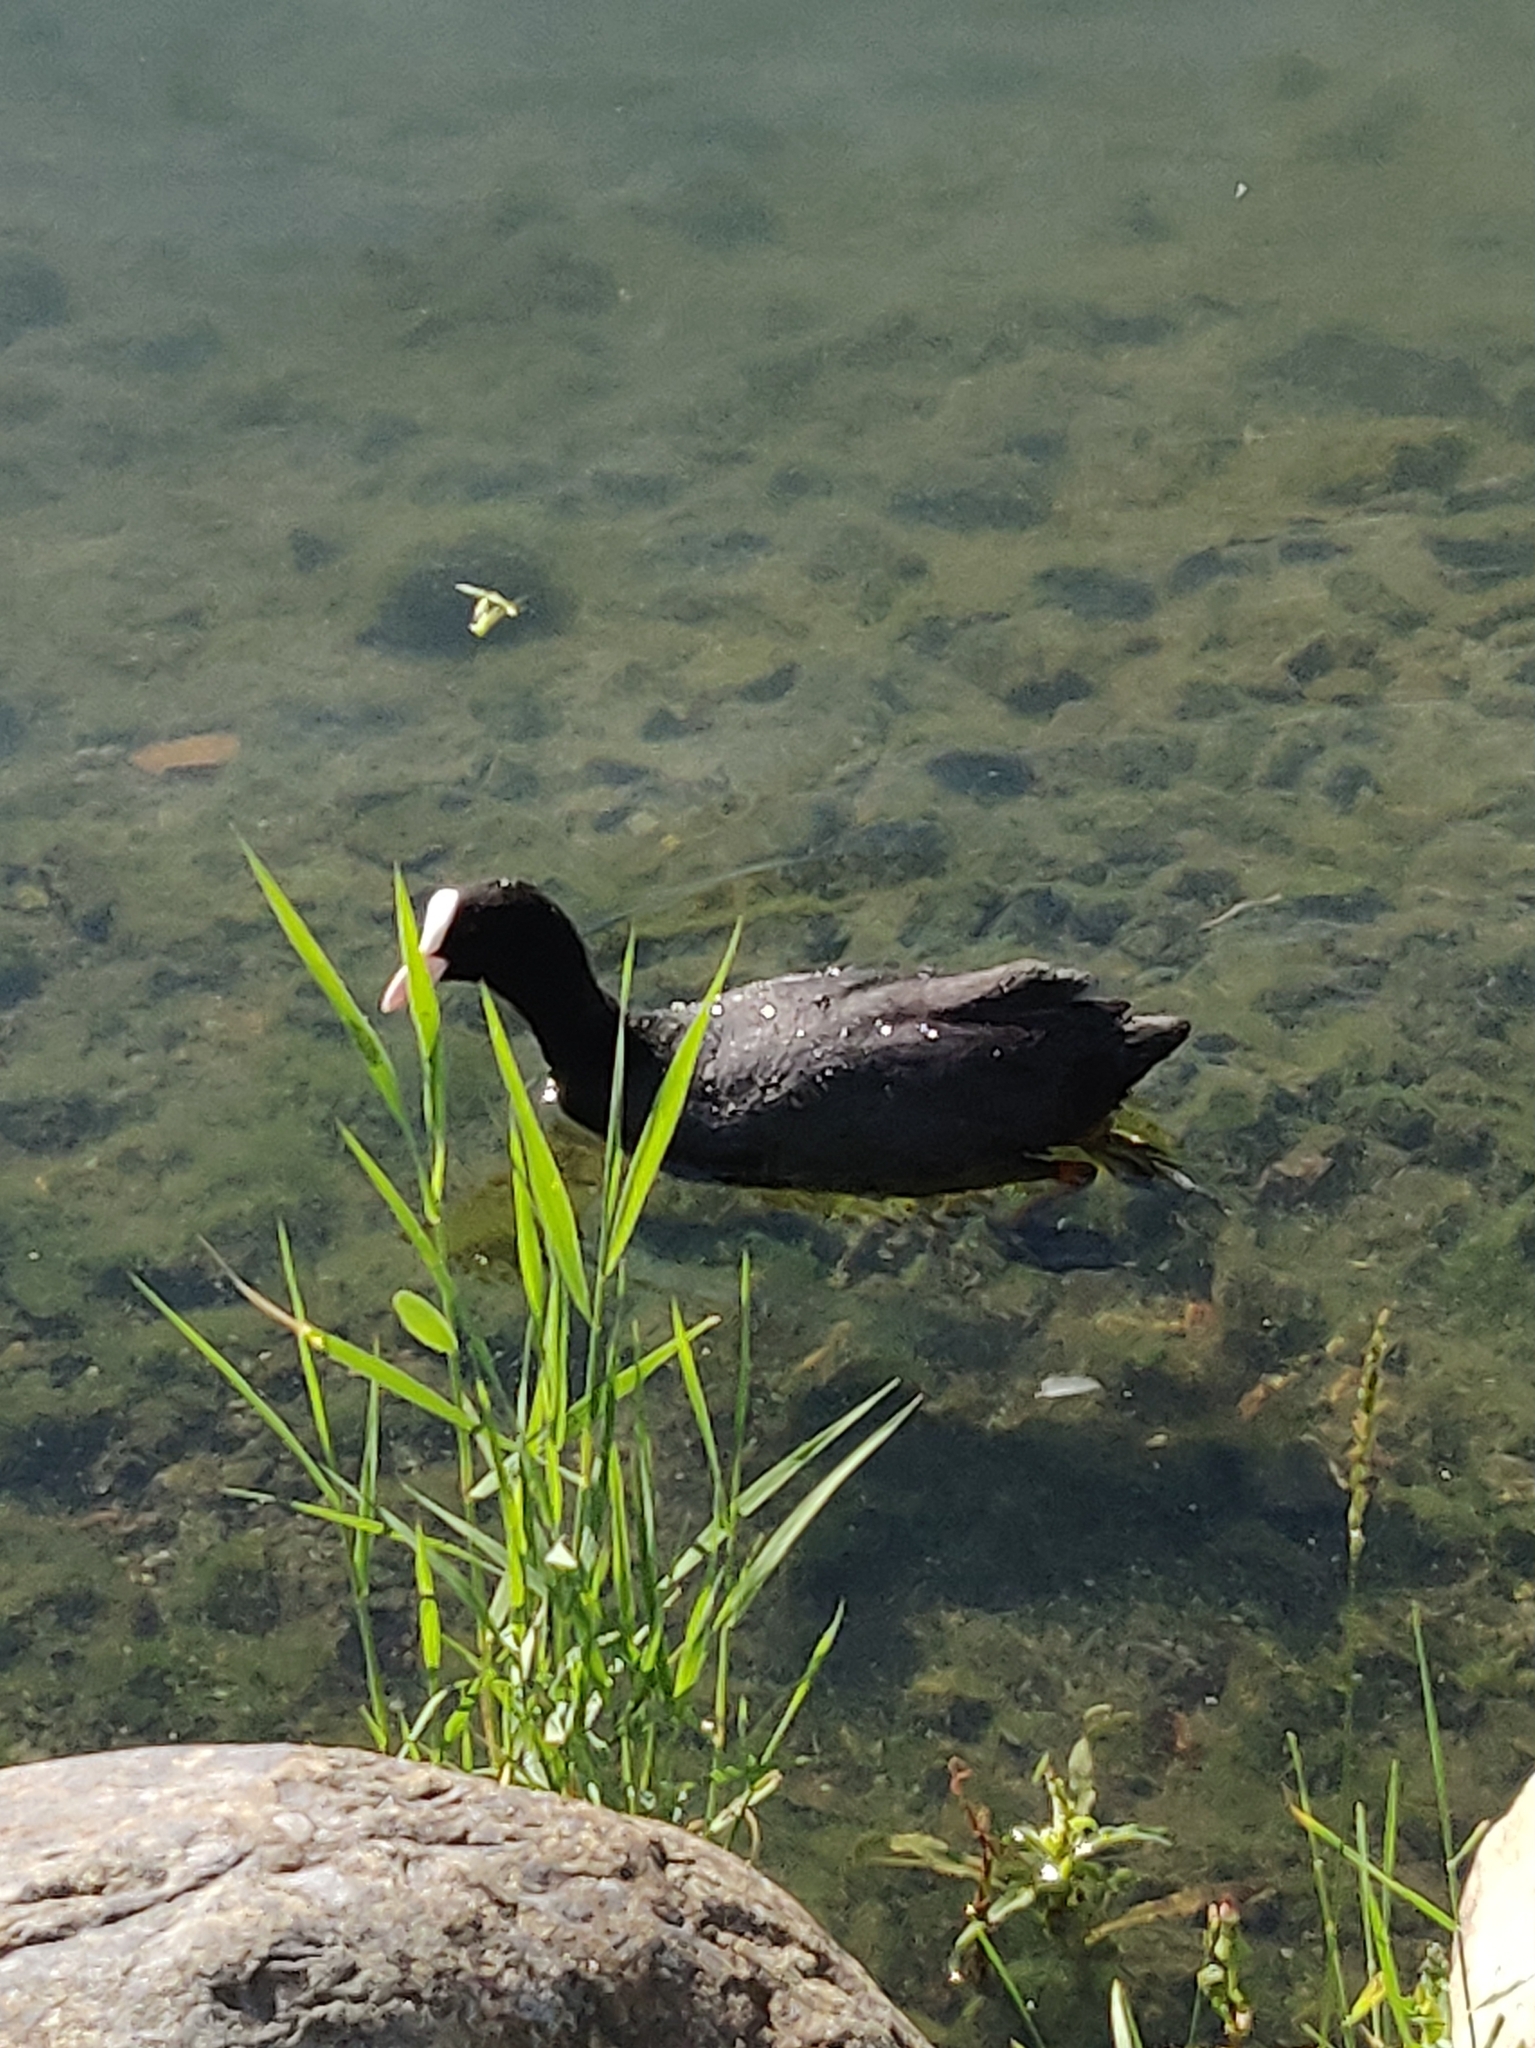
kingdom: Animalia
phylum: Chordata
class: Aves
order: Gruiformes
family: Rallidae
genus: Fulica
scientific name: Fulica atra
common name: Eurasian coot
